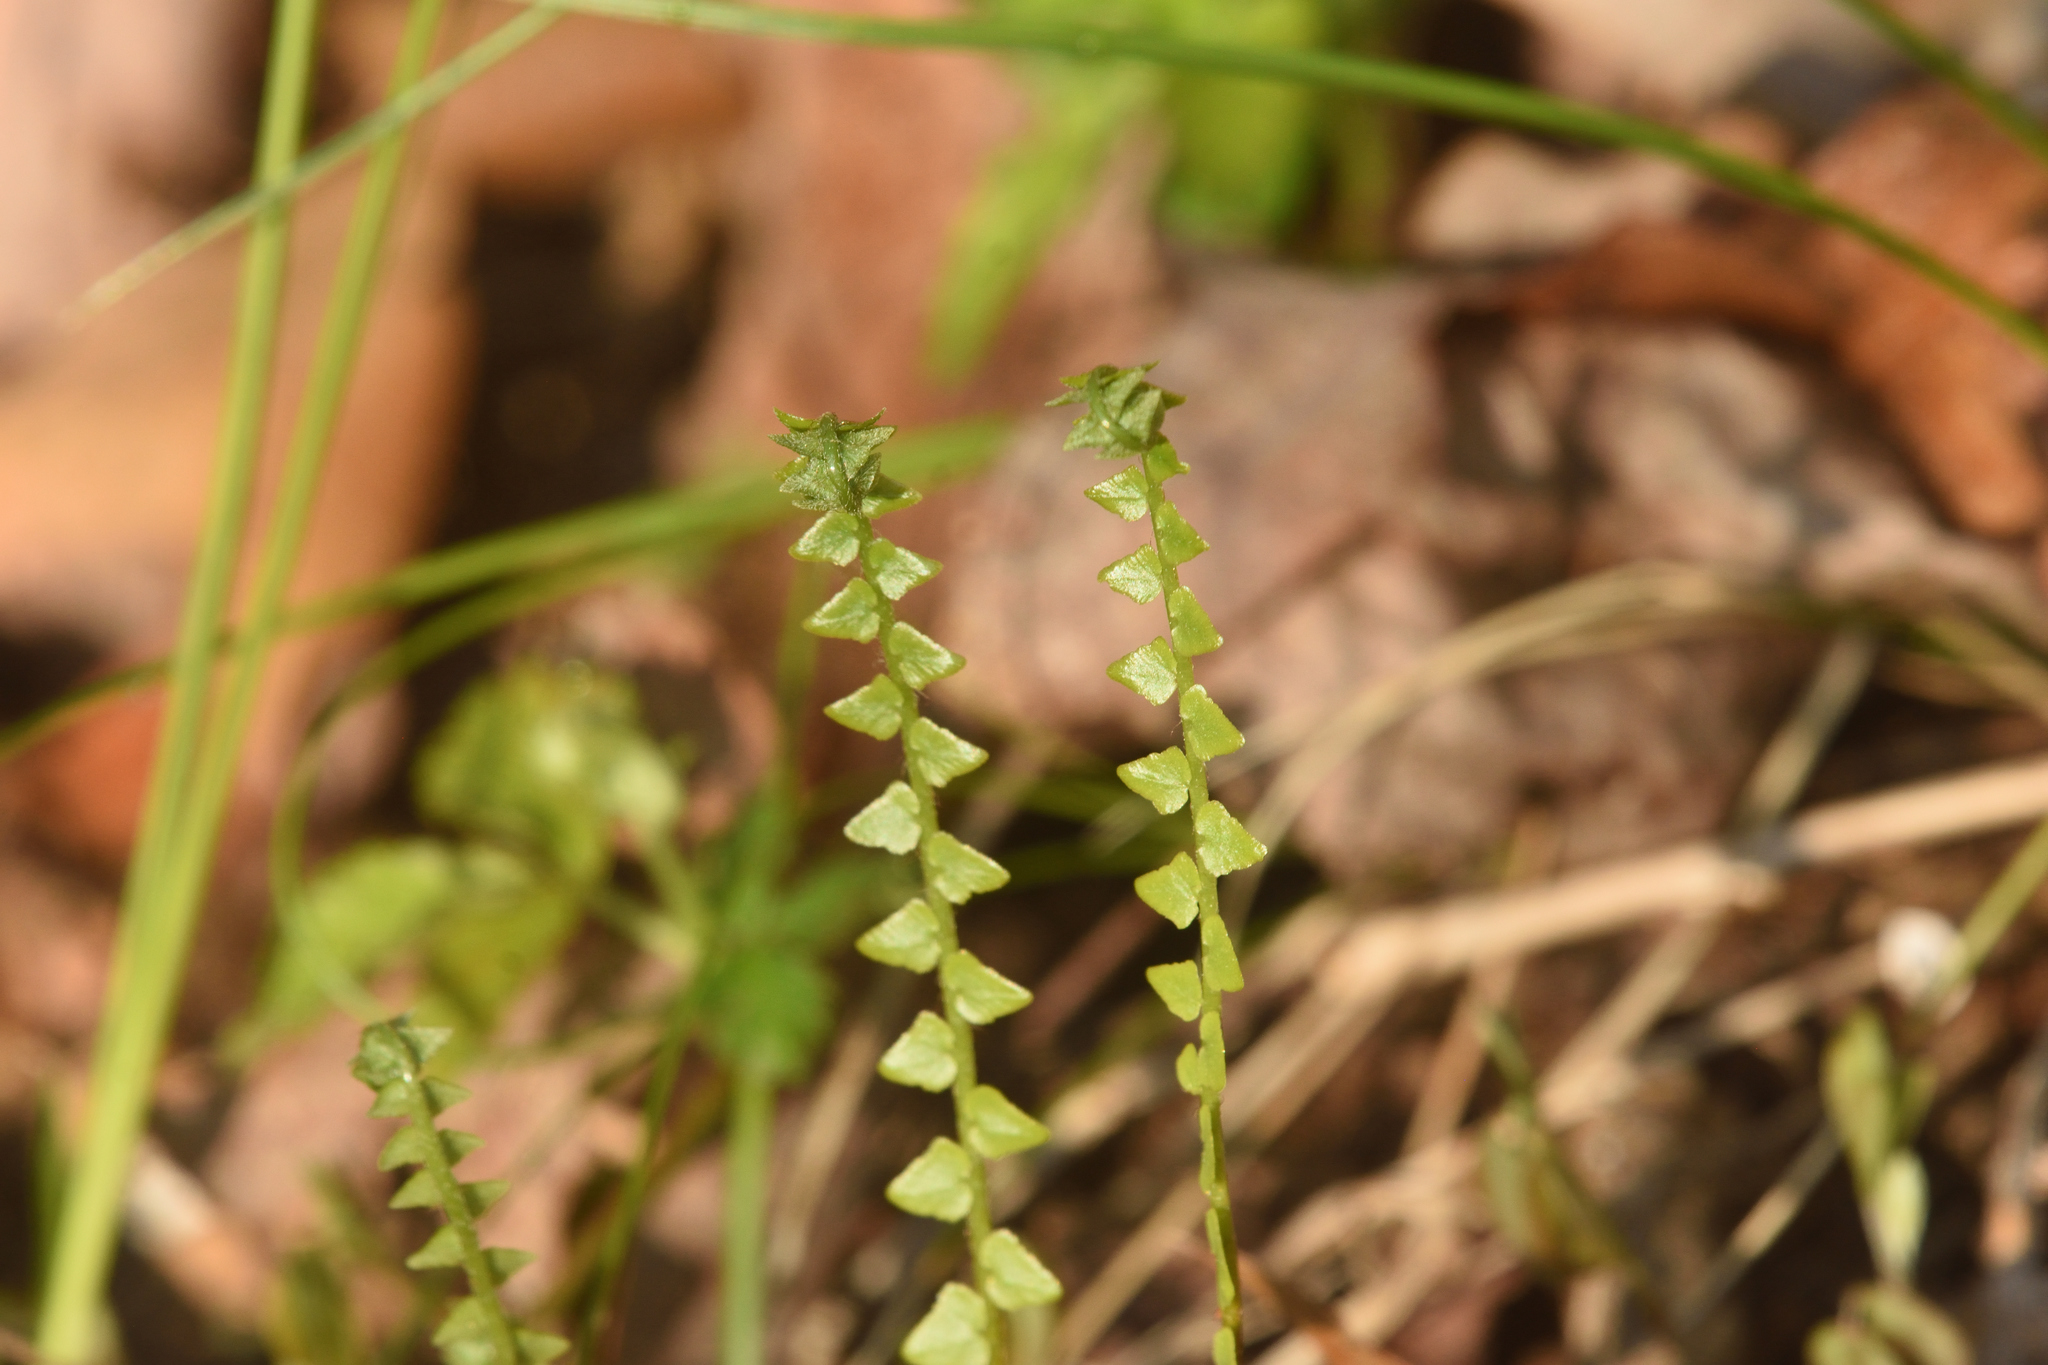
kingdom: Plantae
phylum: Tracheophyta
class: Polypodiopsida
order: Polypodiales
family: Aspleniaceae
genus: Asplenium
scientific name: Asplenium platyneuron
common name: Ebony spleenwort
